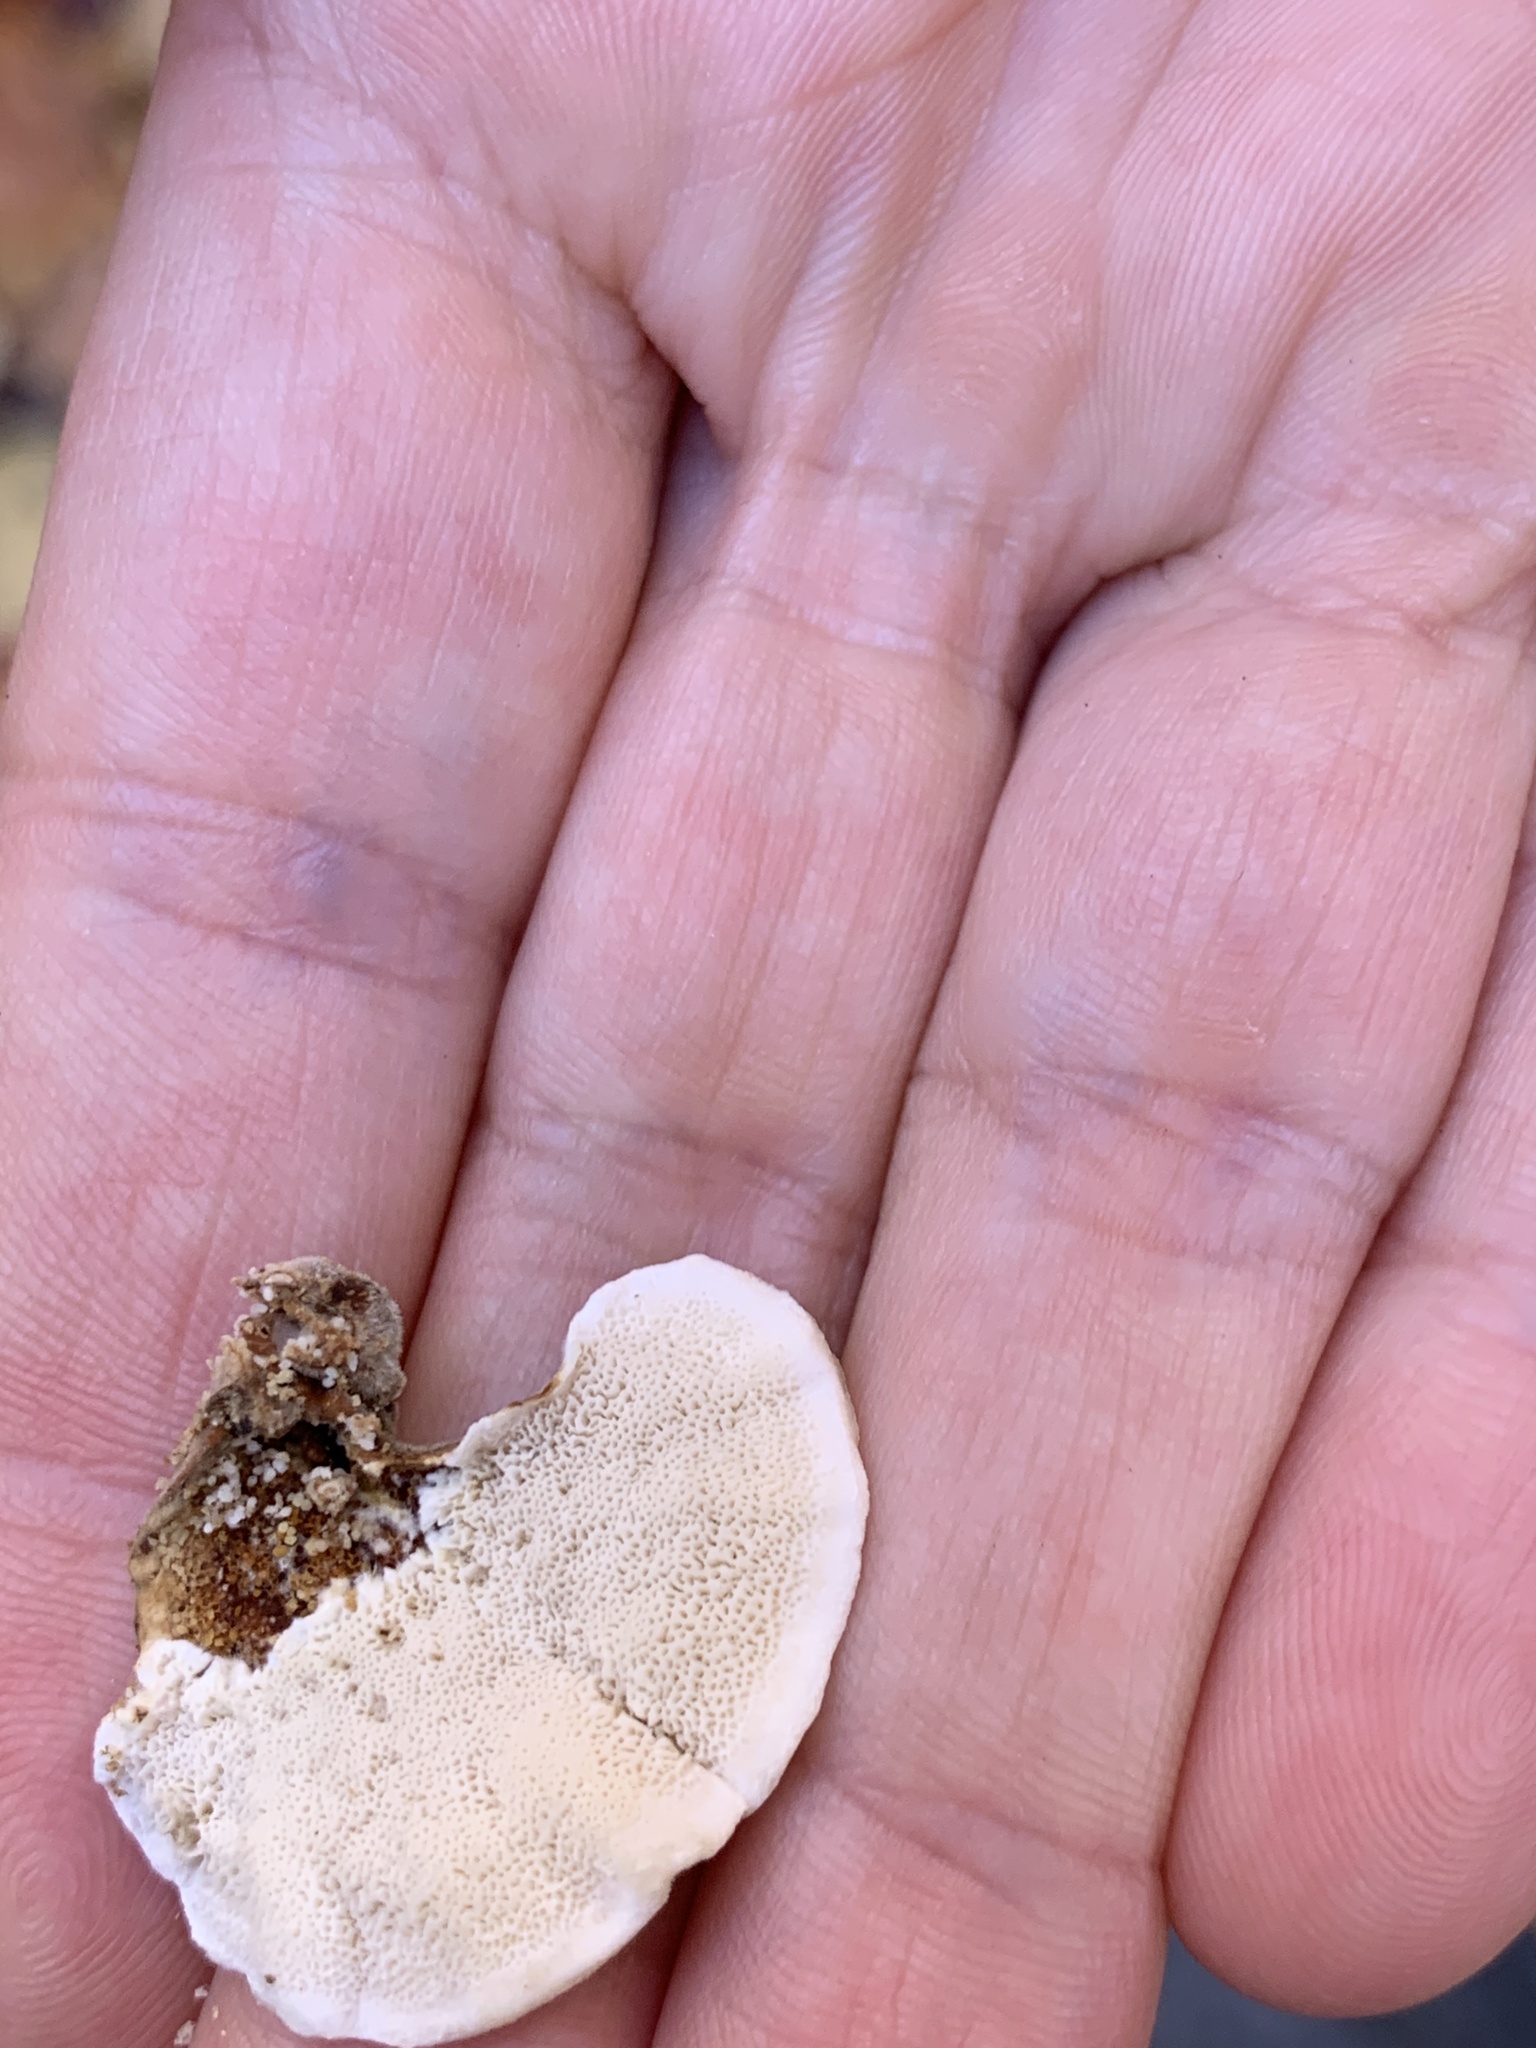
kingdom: Fungi
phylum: Basidiomycota
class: Agaricomycetes
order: Polyporales
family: Polyporaceae
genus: Trametes
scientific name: Trametes versicolor
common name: Turkeytail
